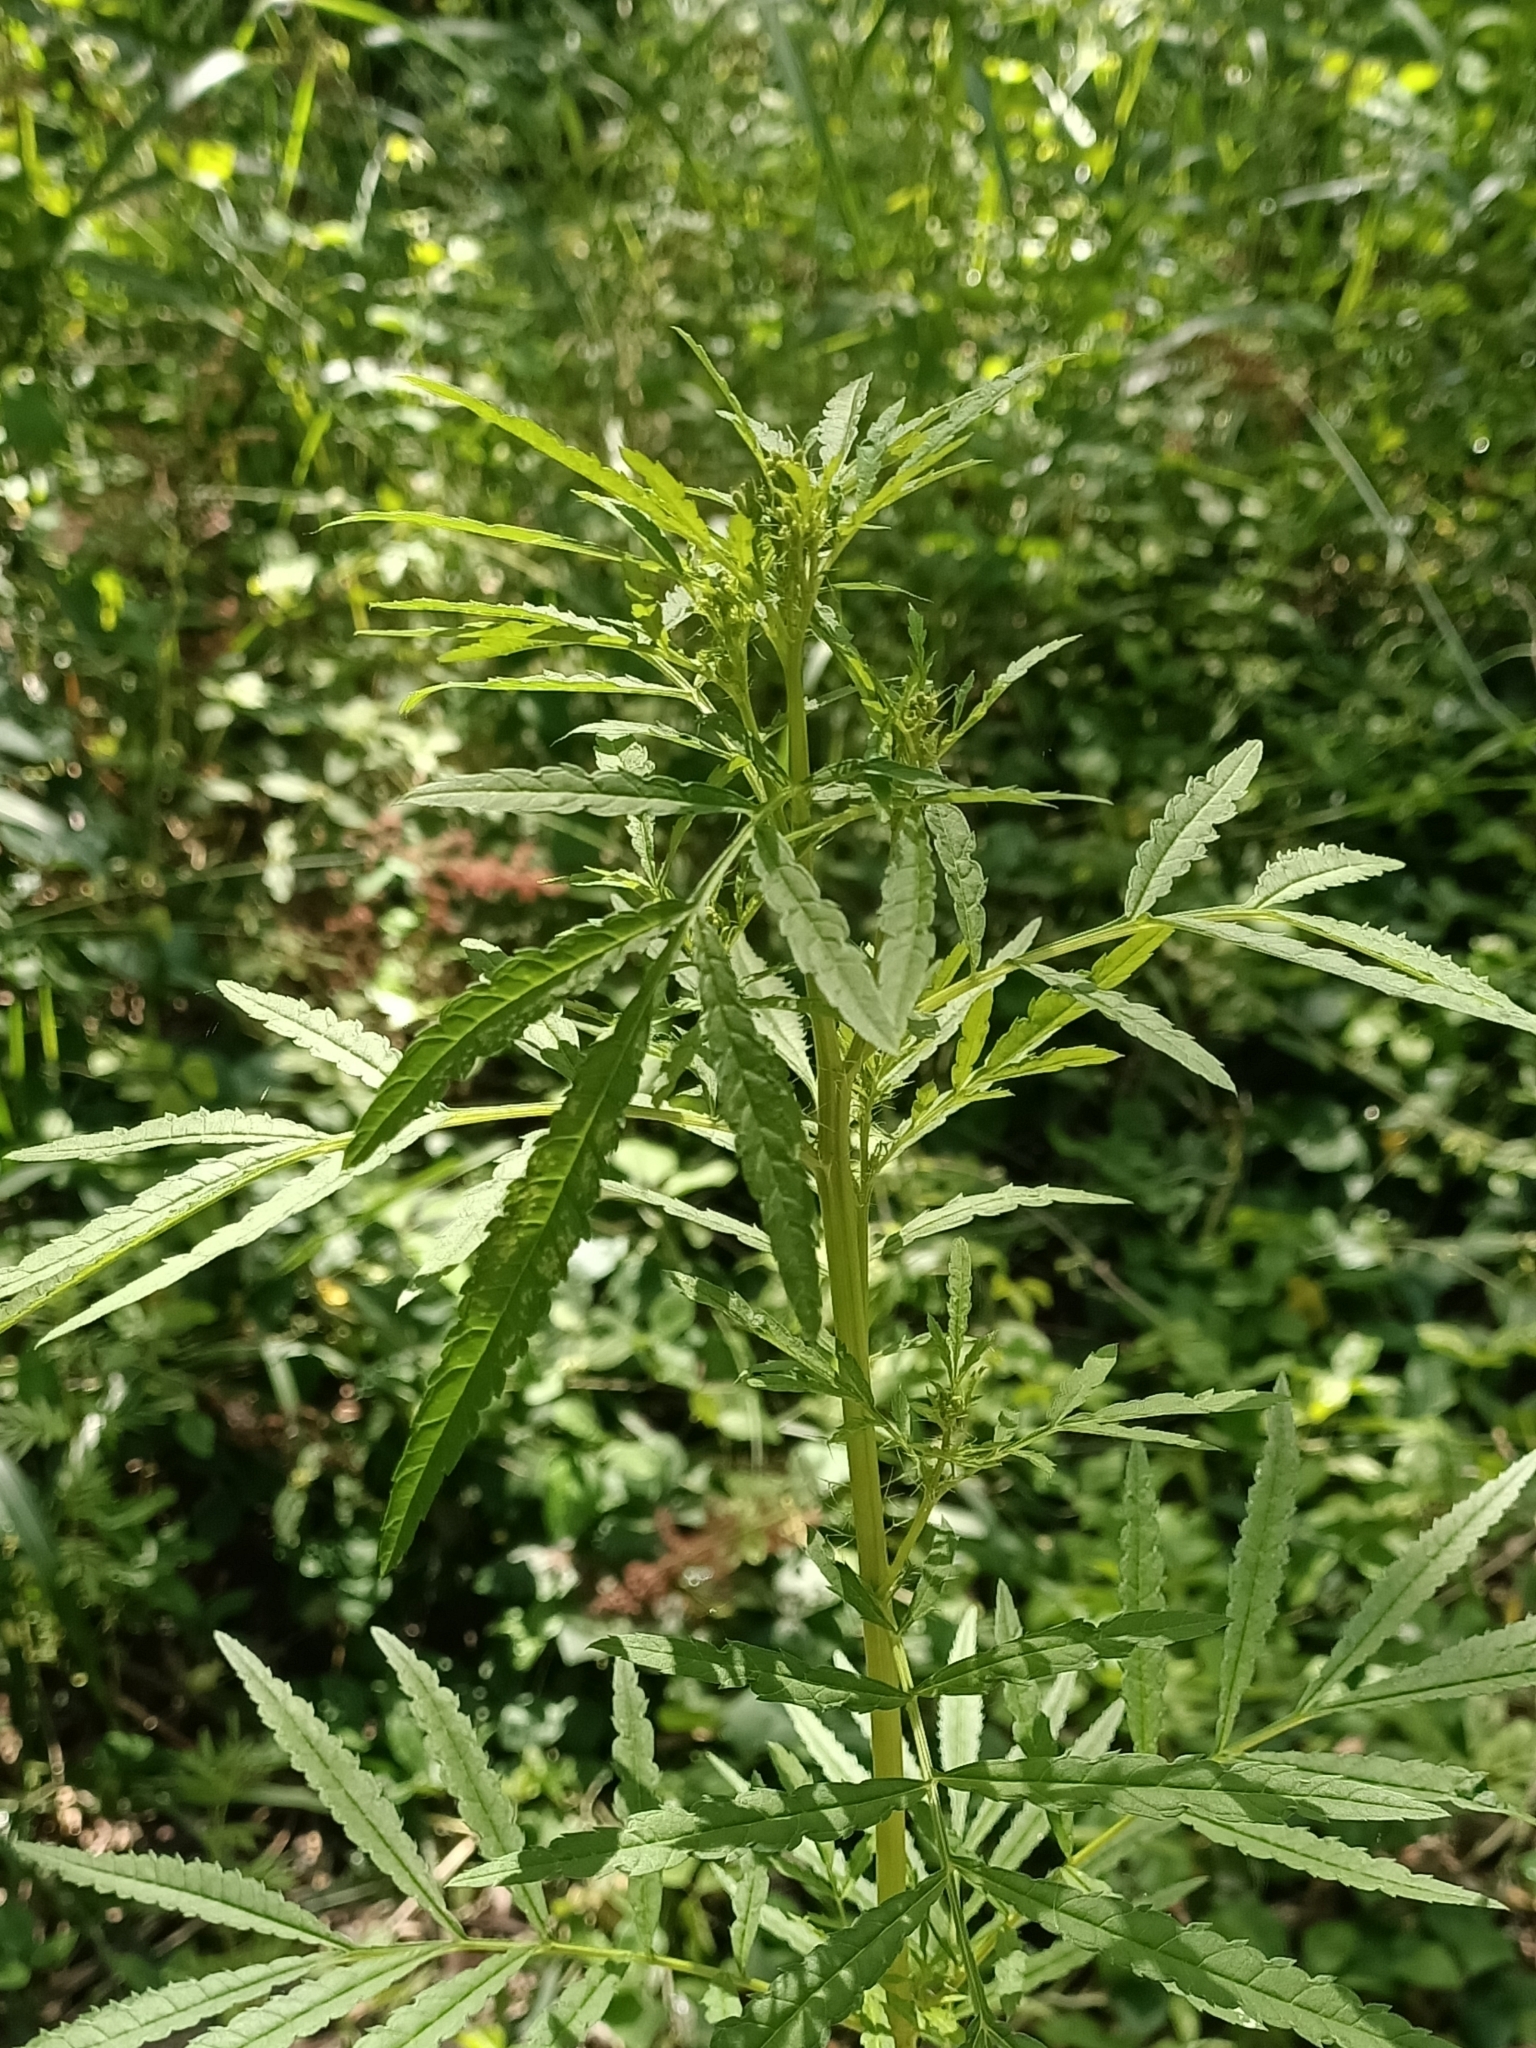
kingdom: Plantae
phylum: Tracheophyta
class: Magnoliopsida
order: Asterales
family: Asteraceae
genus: Tagetes
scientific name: Tagetes minuta
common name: Muster john henry
